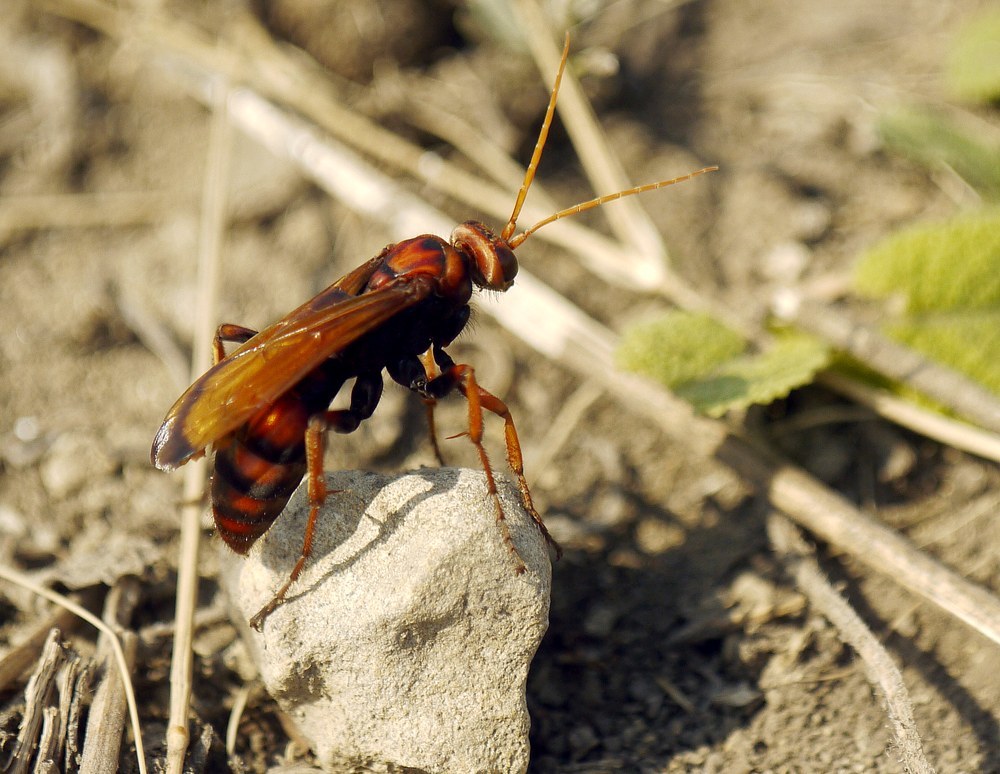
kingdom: Animalia
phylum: Arthropoda
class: Insecta
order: Hymenoptera
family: Pompilidae
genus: Cryptocheilus
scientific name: Cryptocheilus rubellus
